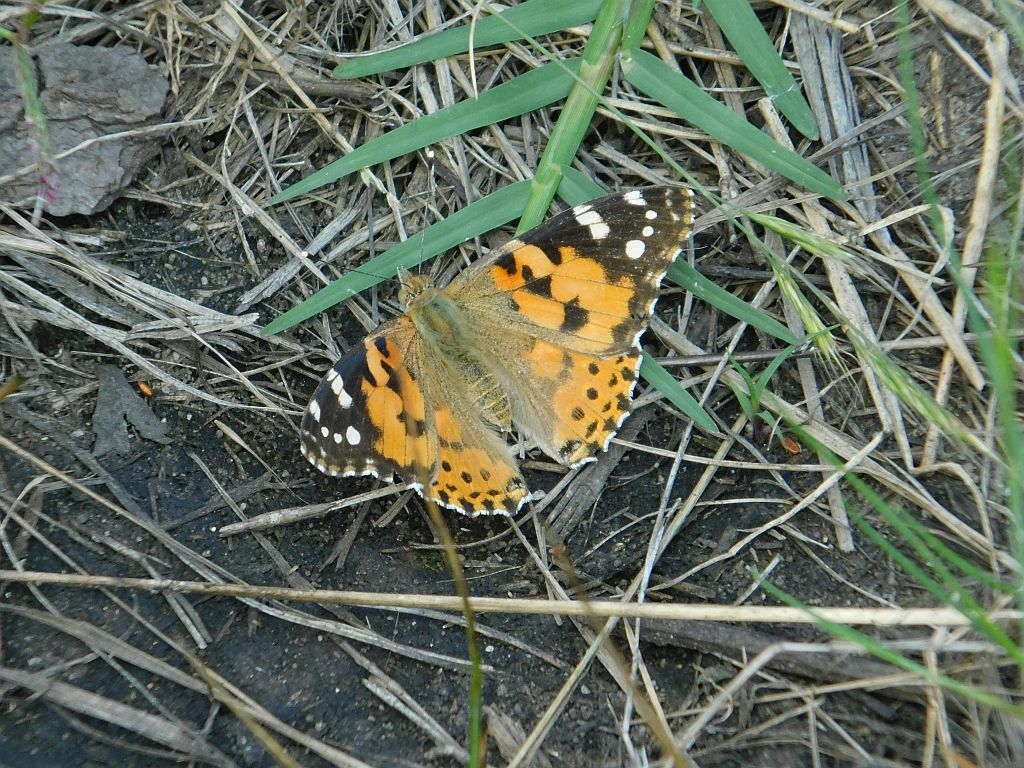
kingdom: Animalia
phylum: Arthropoda
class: Insecta
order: Lepidoptera
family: Nymphalidae
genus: Vanessa
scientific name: Vanessa cardui
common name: Painted lady
